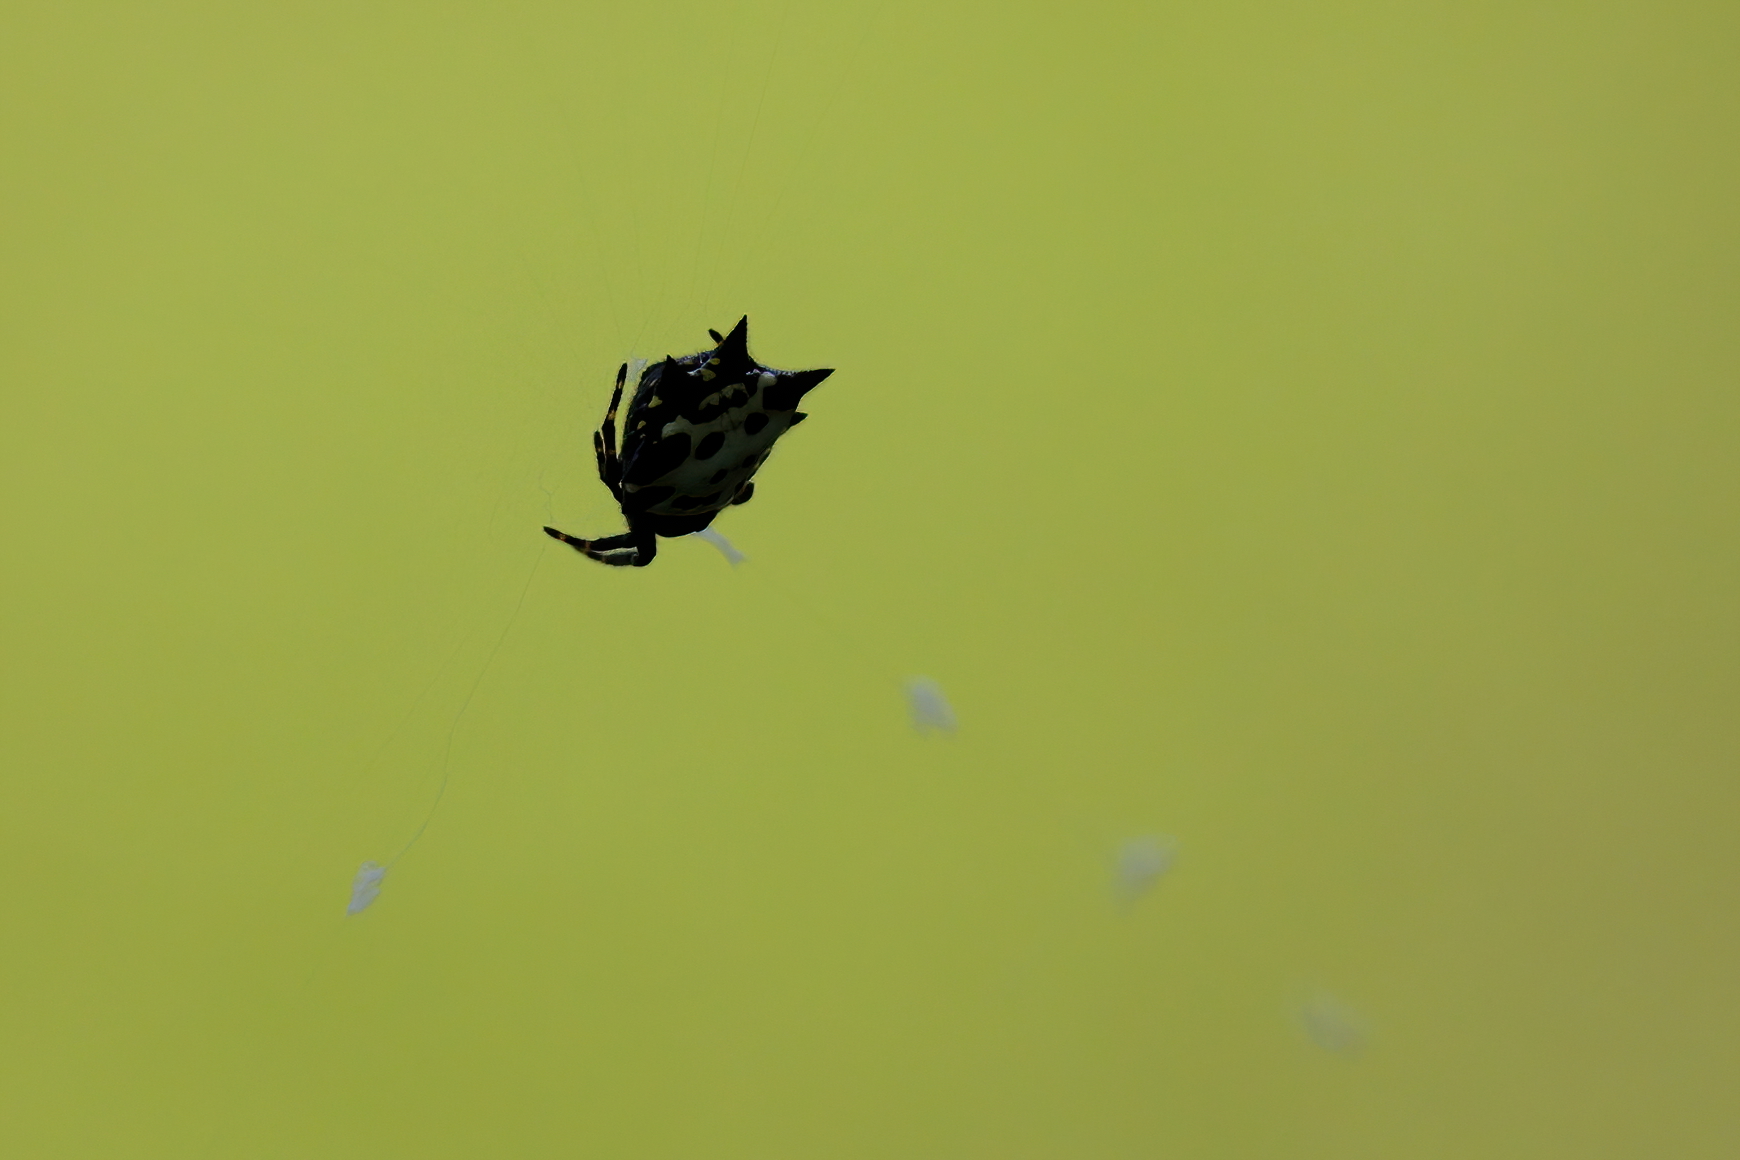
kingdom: Animalia
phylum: Arthropoda
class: Arachnida
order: Araneae
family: Araneidae
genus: Gasteracantha
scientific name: Gasteracantha cancriformis
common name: Orb weavers
